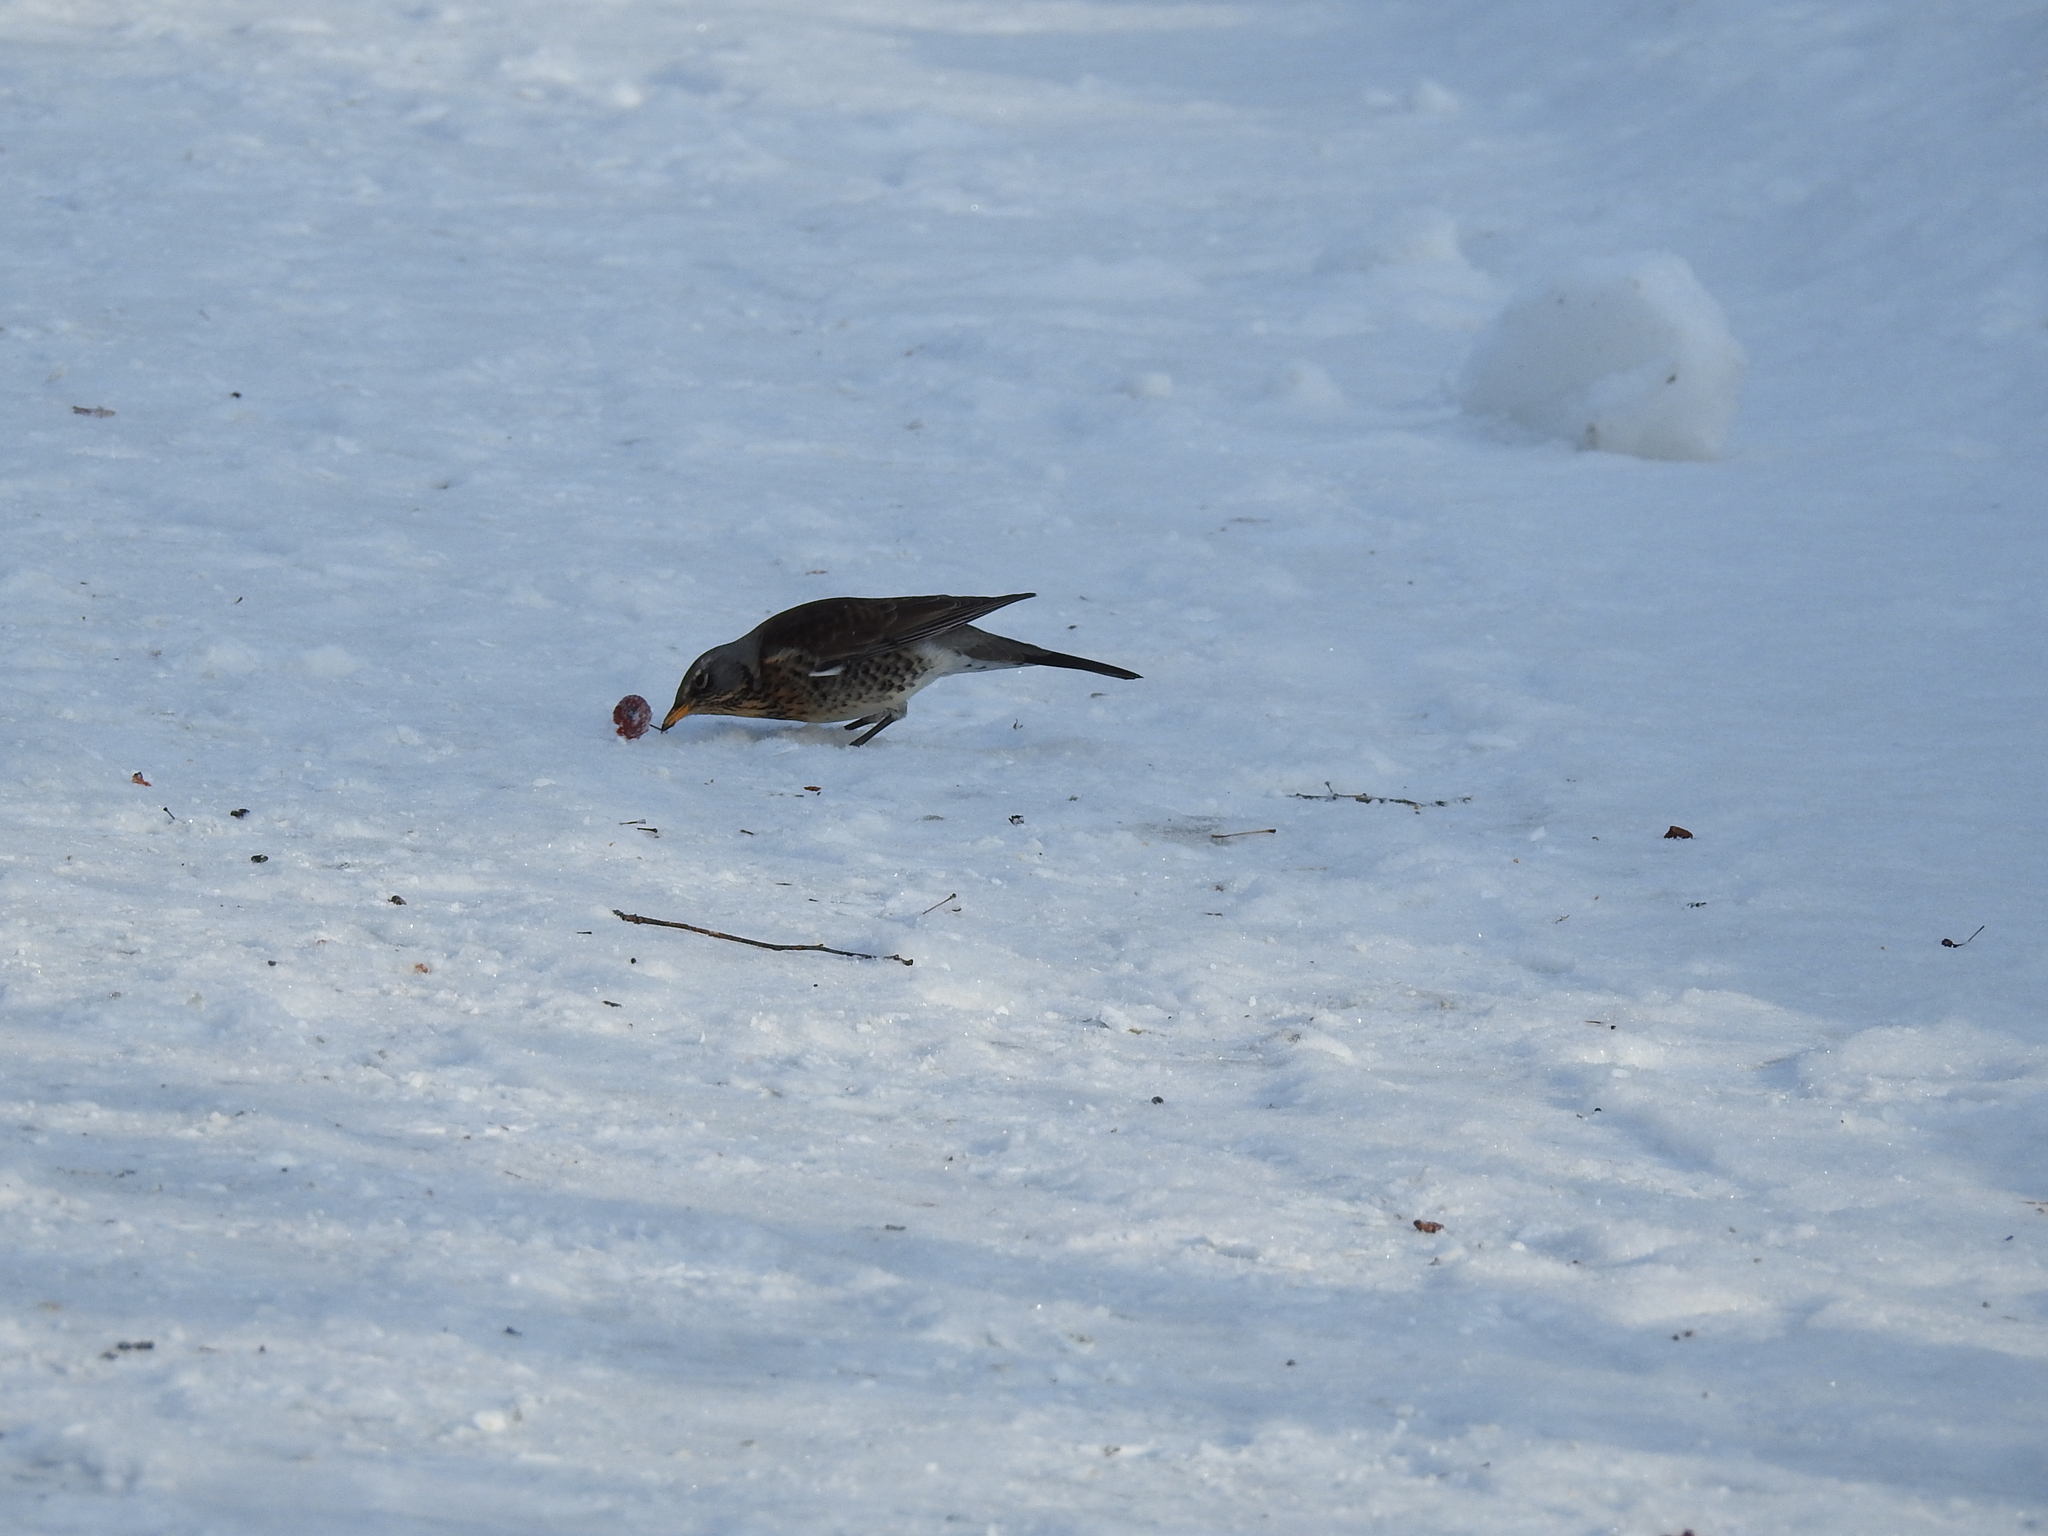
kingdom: Animalia
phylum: Chordata
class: Aves
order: Passeriformes
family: Turdidae
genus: Turdus
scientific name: Turdus pilaris
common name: Fieldfare
